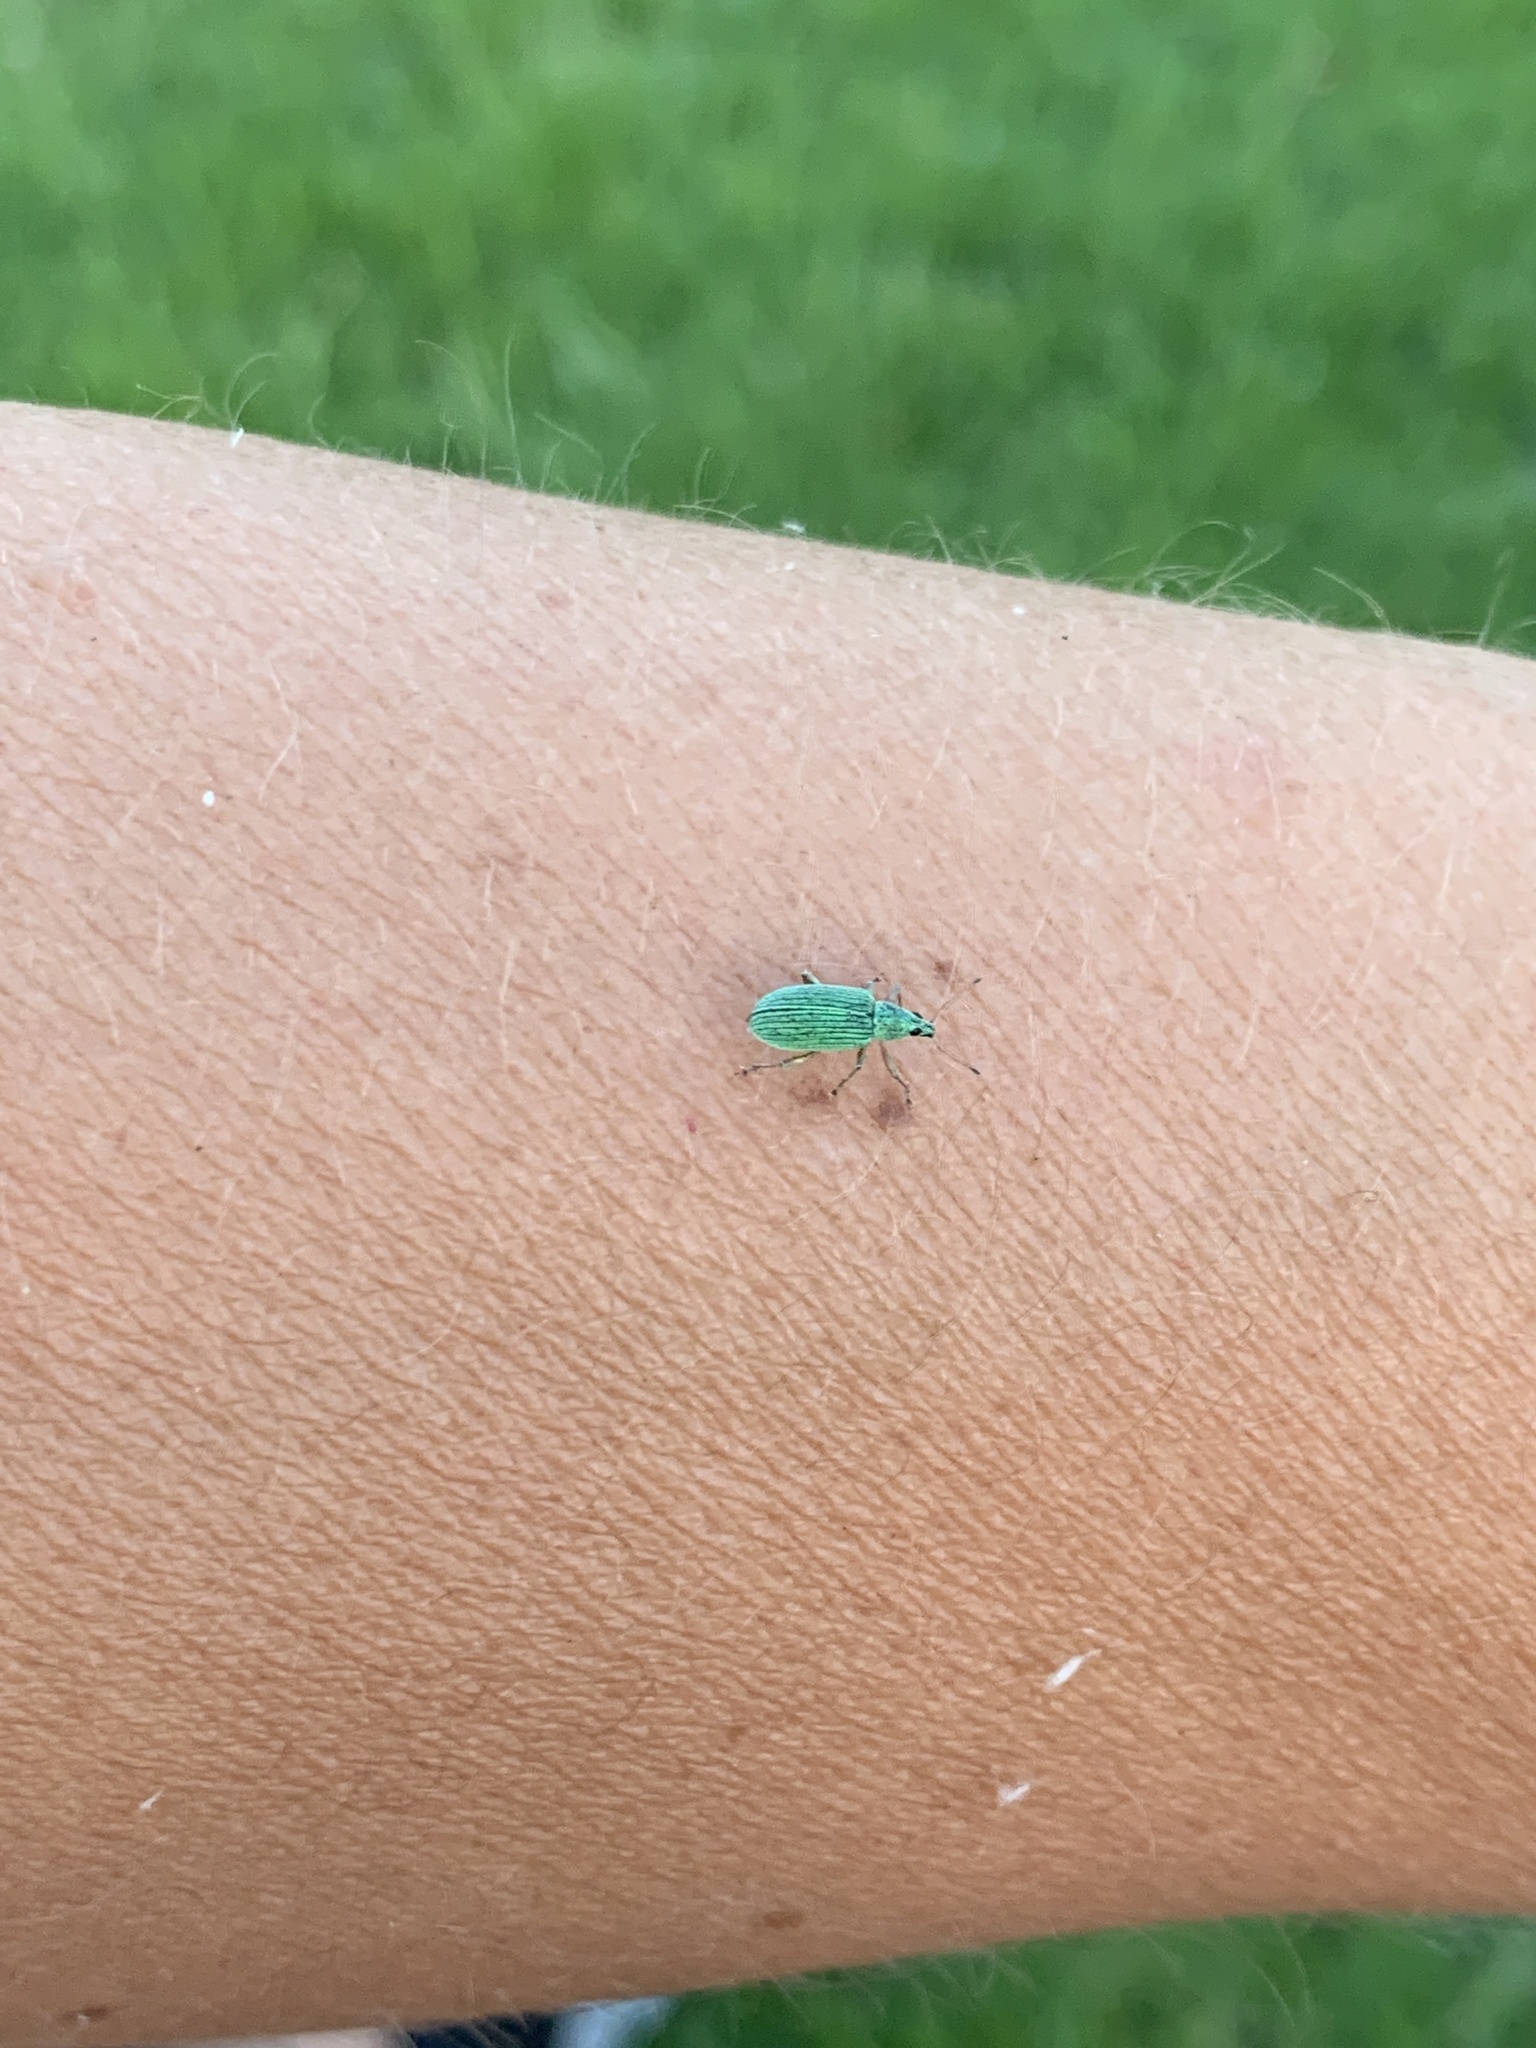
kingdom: Animalia
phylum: Arthropoda
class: Insecta
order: Coleoptera
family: Curculionidae
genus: Polydrusus
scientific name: Polydrusus formosus
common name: Weevil
